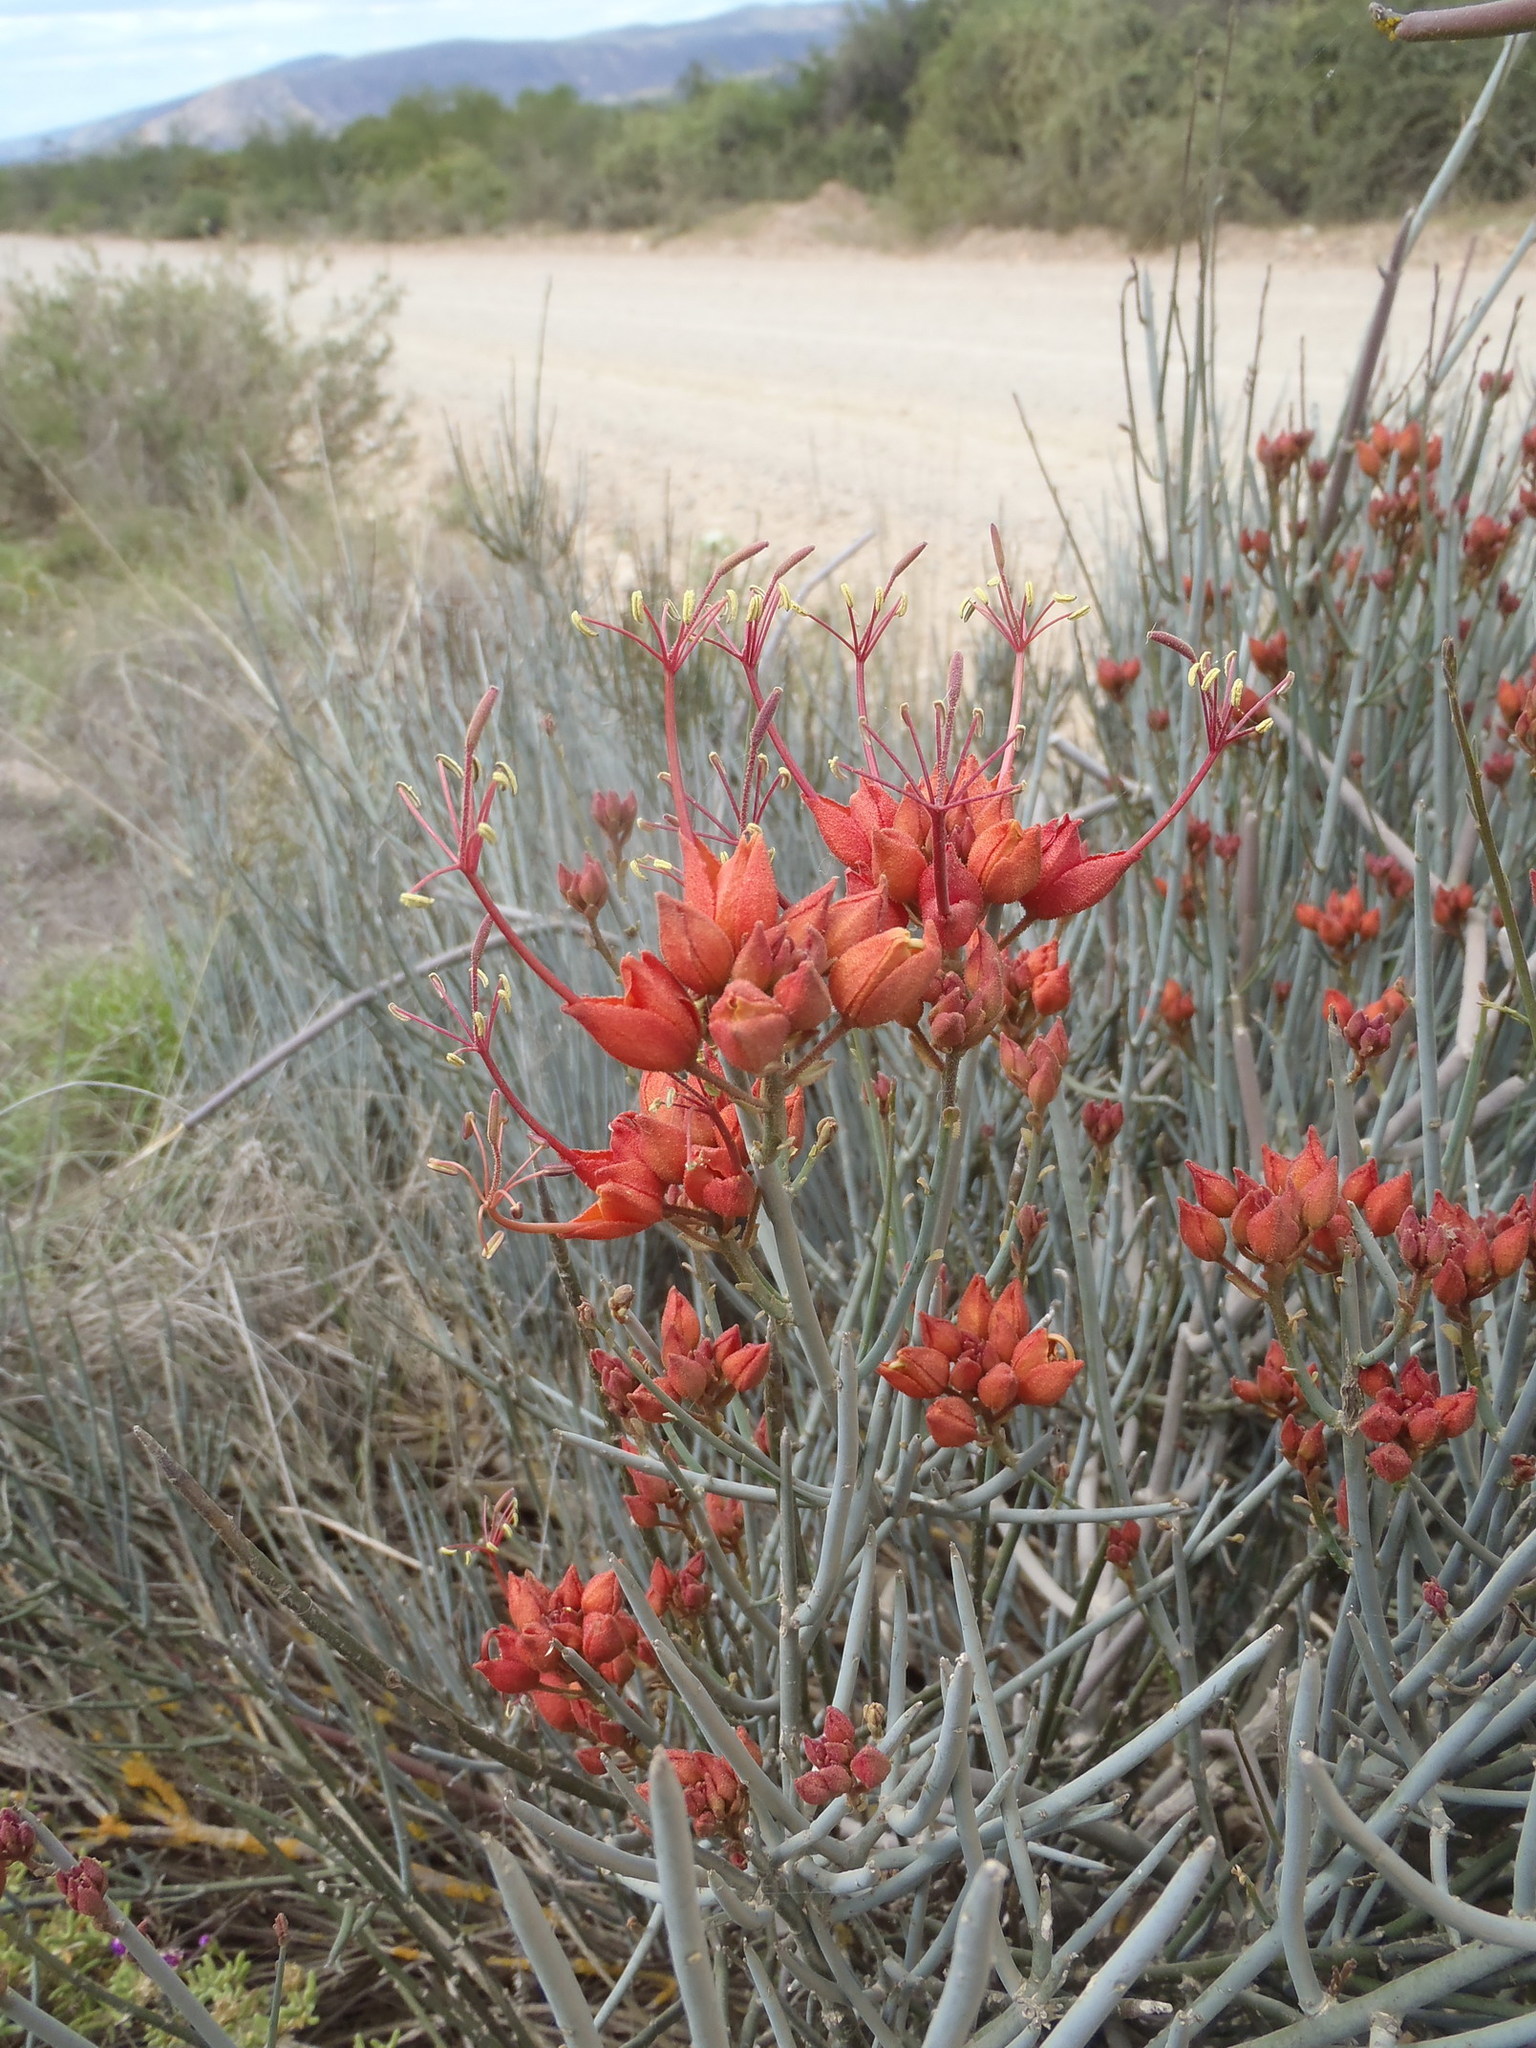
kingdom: Plantae
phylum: Tracheophyta
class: Magnoliopsida
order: Brassicales
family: Capparaceae
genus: Cadaba
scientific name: Cadaba aphylla
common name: Black storm
